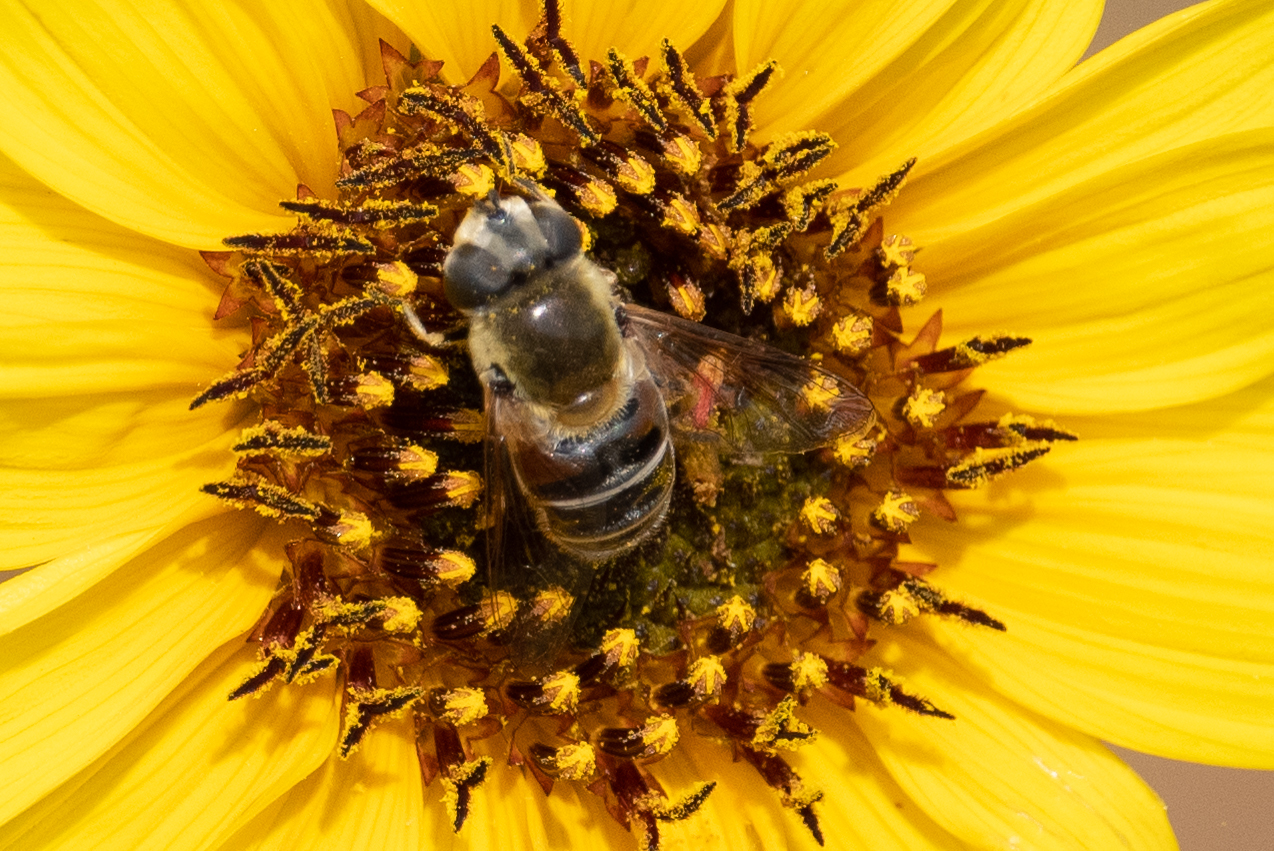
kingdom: Animalia
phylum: Arthropoda
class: Insecta
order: Diptera
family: Syrphidae
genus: Eristalis
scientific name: Eristalis stipator
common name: Yellow-shouldered drone fly
